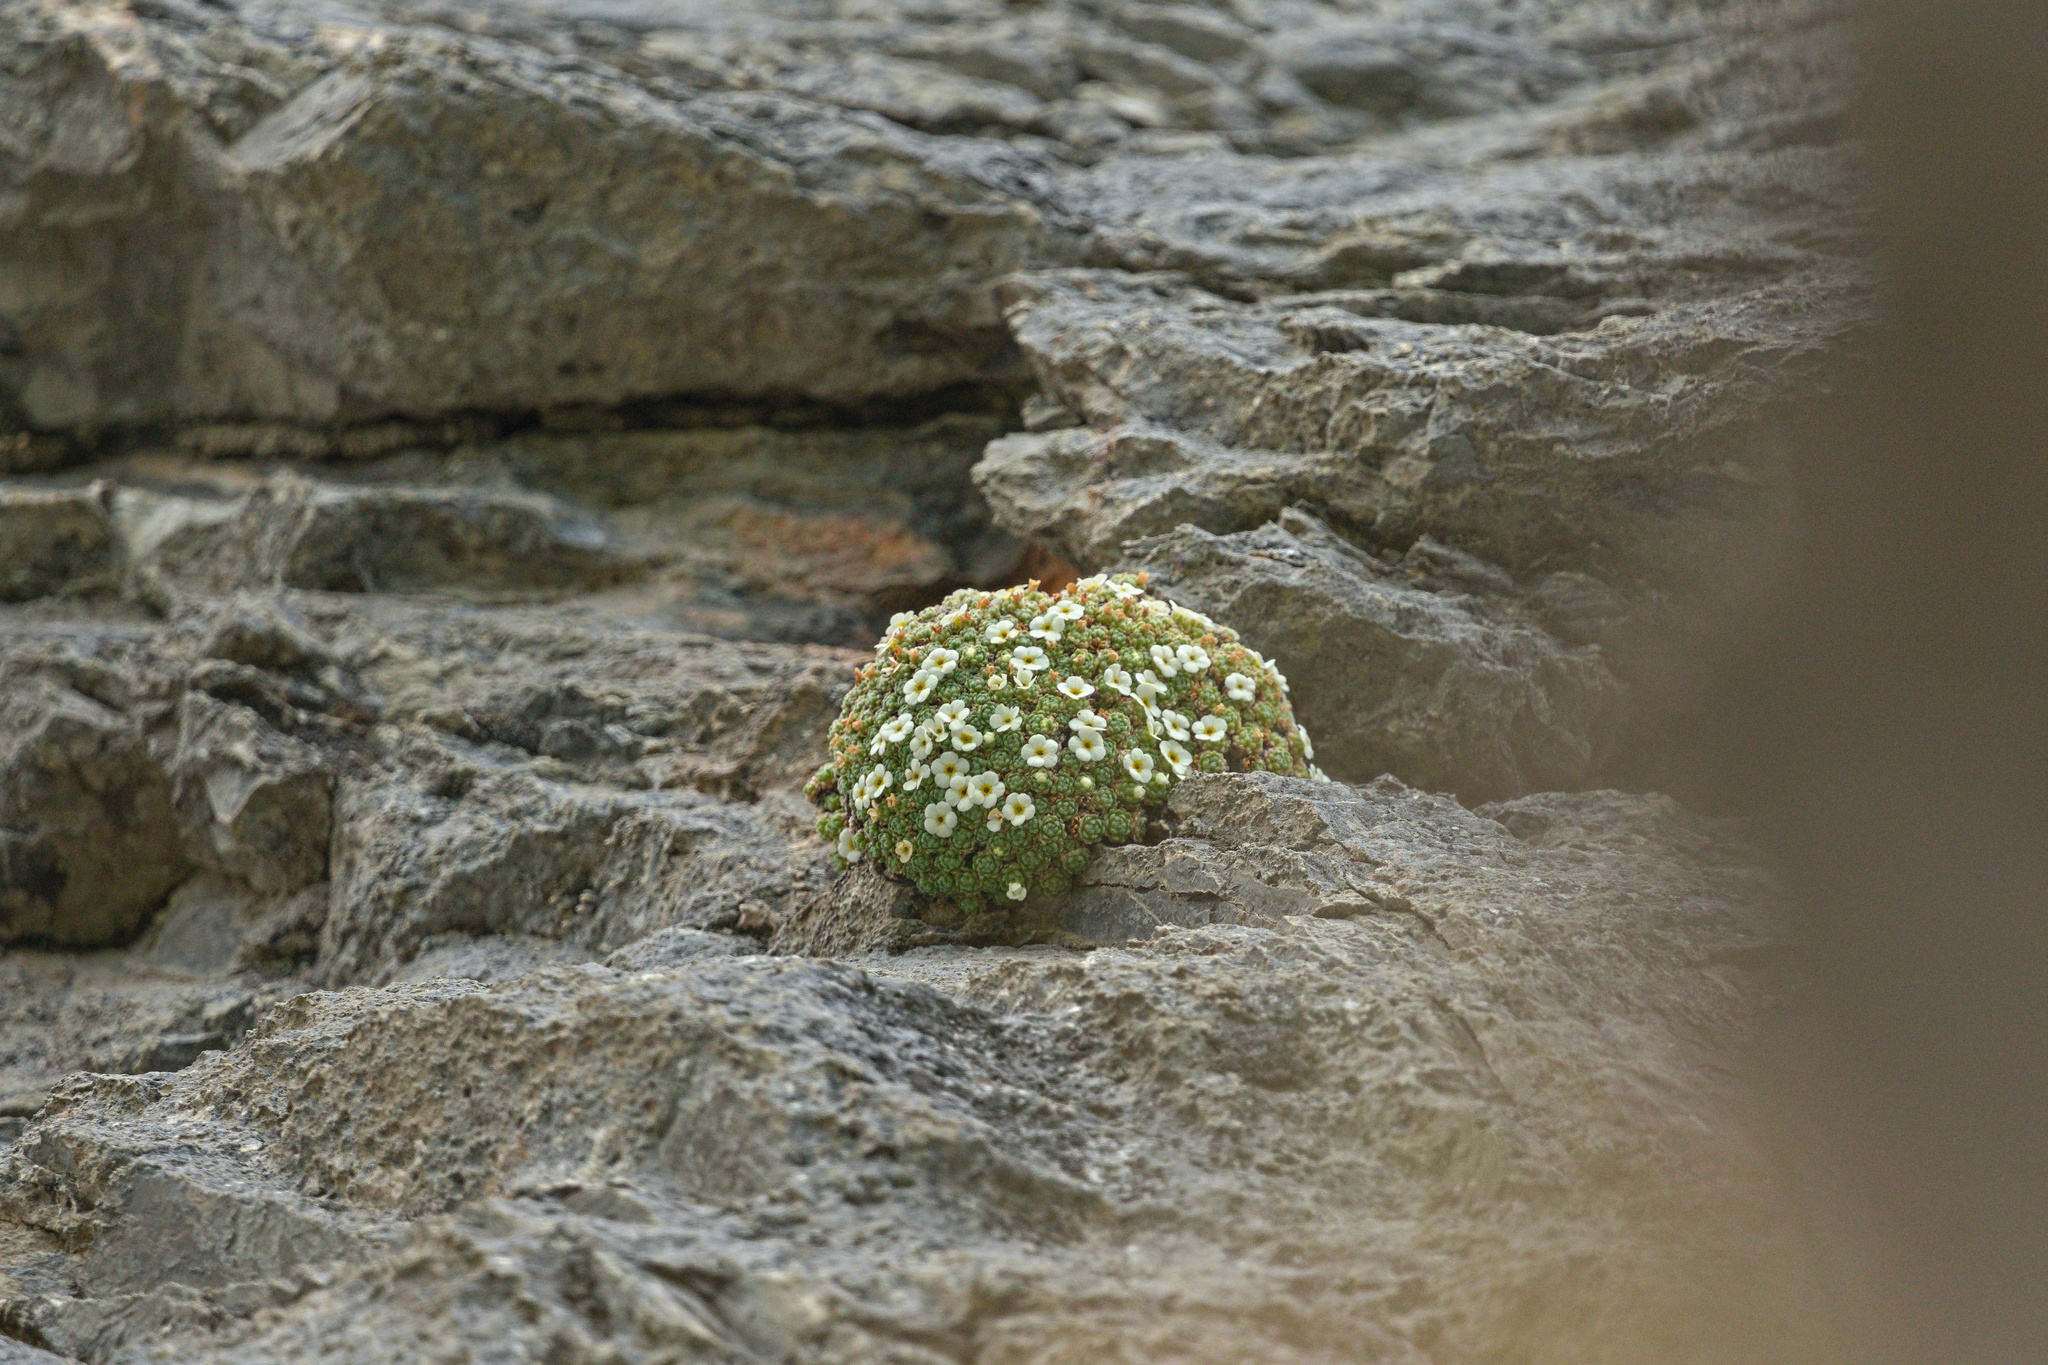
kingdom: Plantae
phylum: Tracheophyta
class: Magnoliopsida
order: Ericales
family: Primulaceae
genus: Androsace
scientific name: Androsace helvetica
